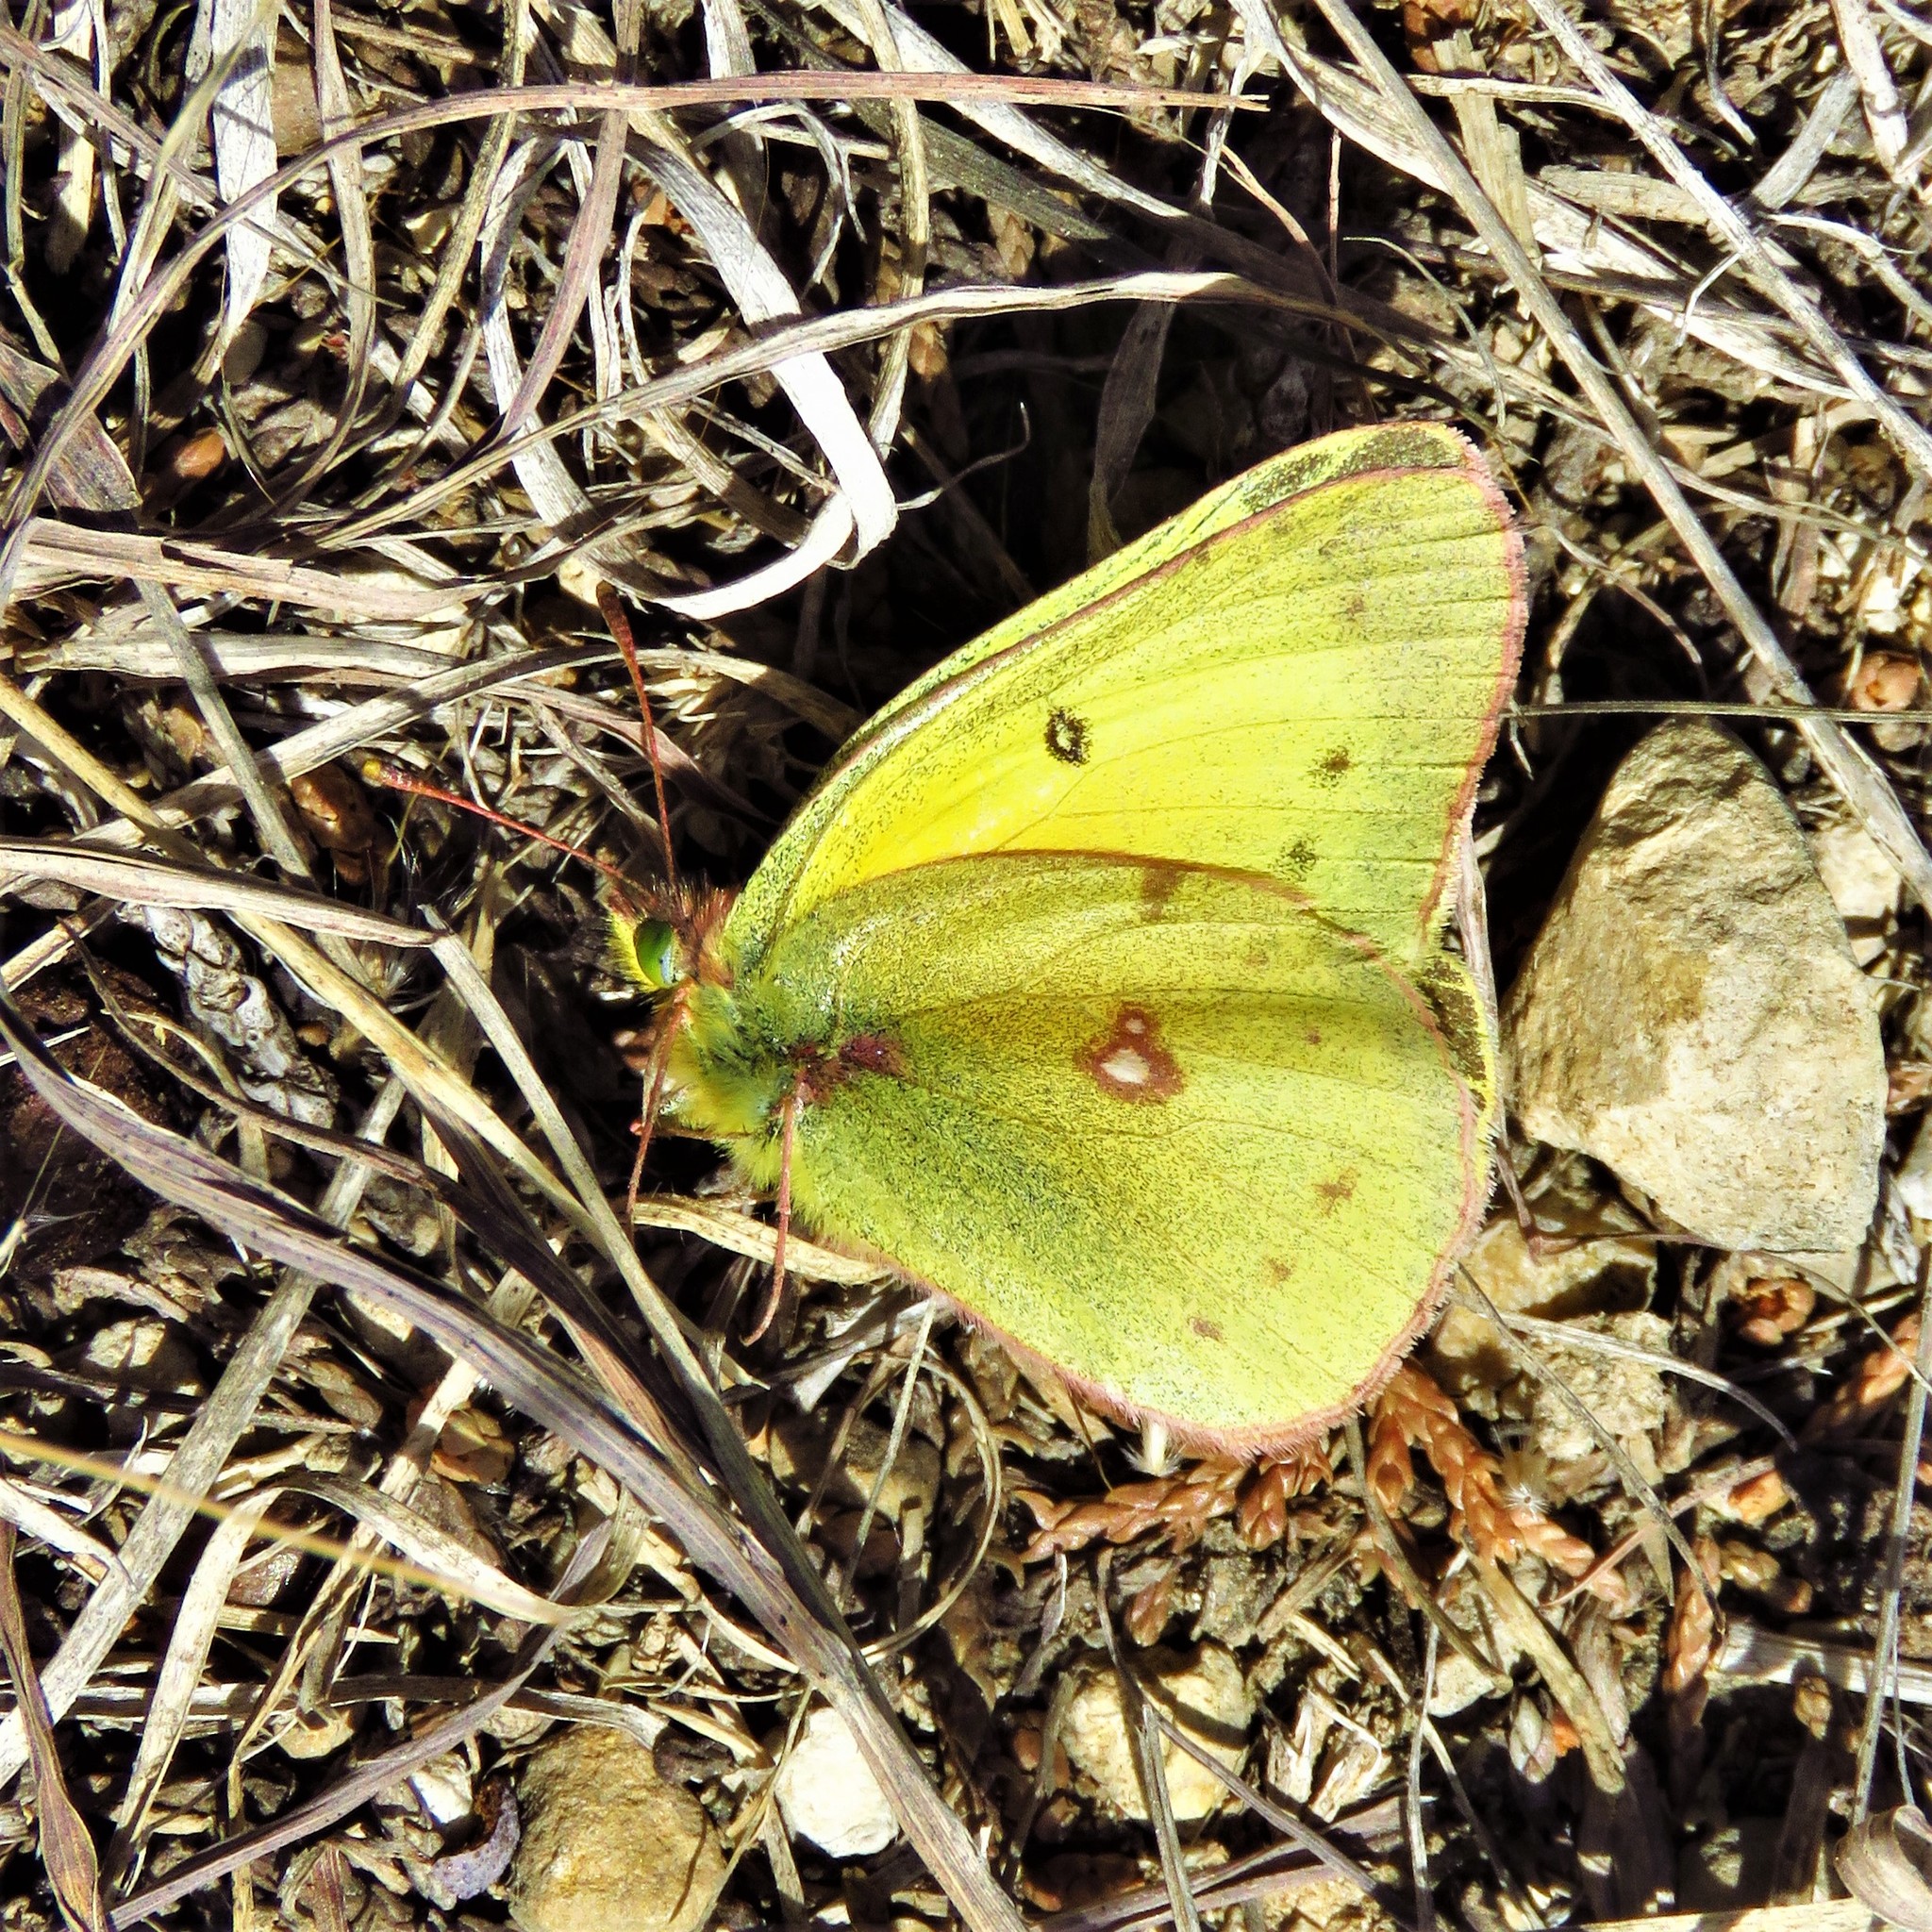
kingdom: Animalia
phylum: Arthropoda
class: Insecta
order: Lepidoptera
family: Pieridae
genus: Colias
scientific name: Colias eurytheme
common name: Alfalfa butterfly
